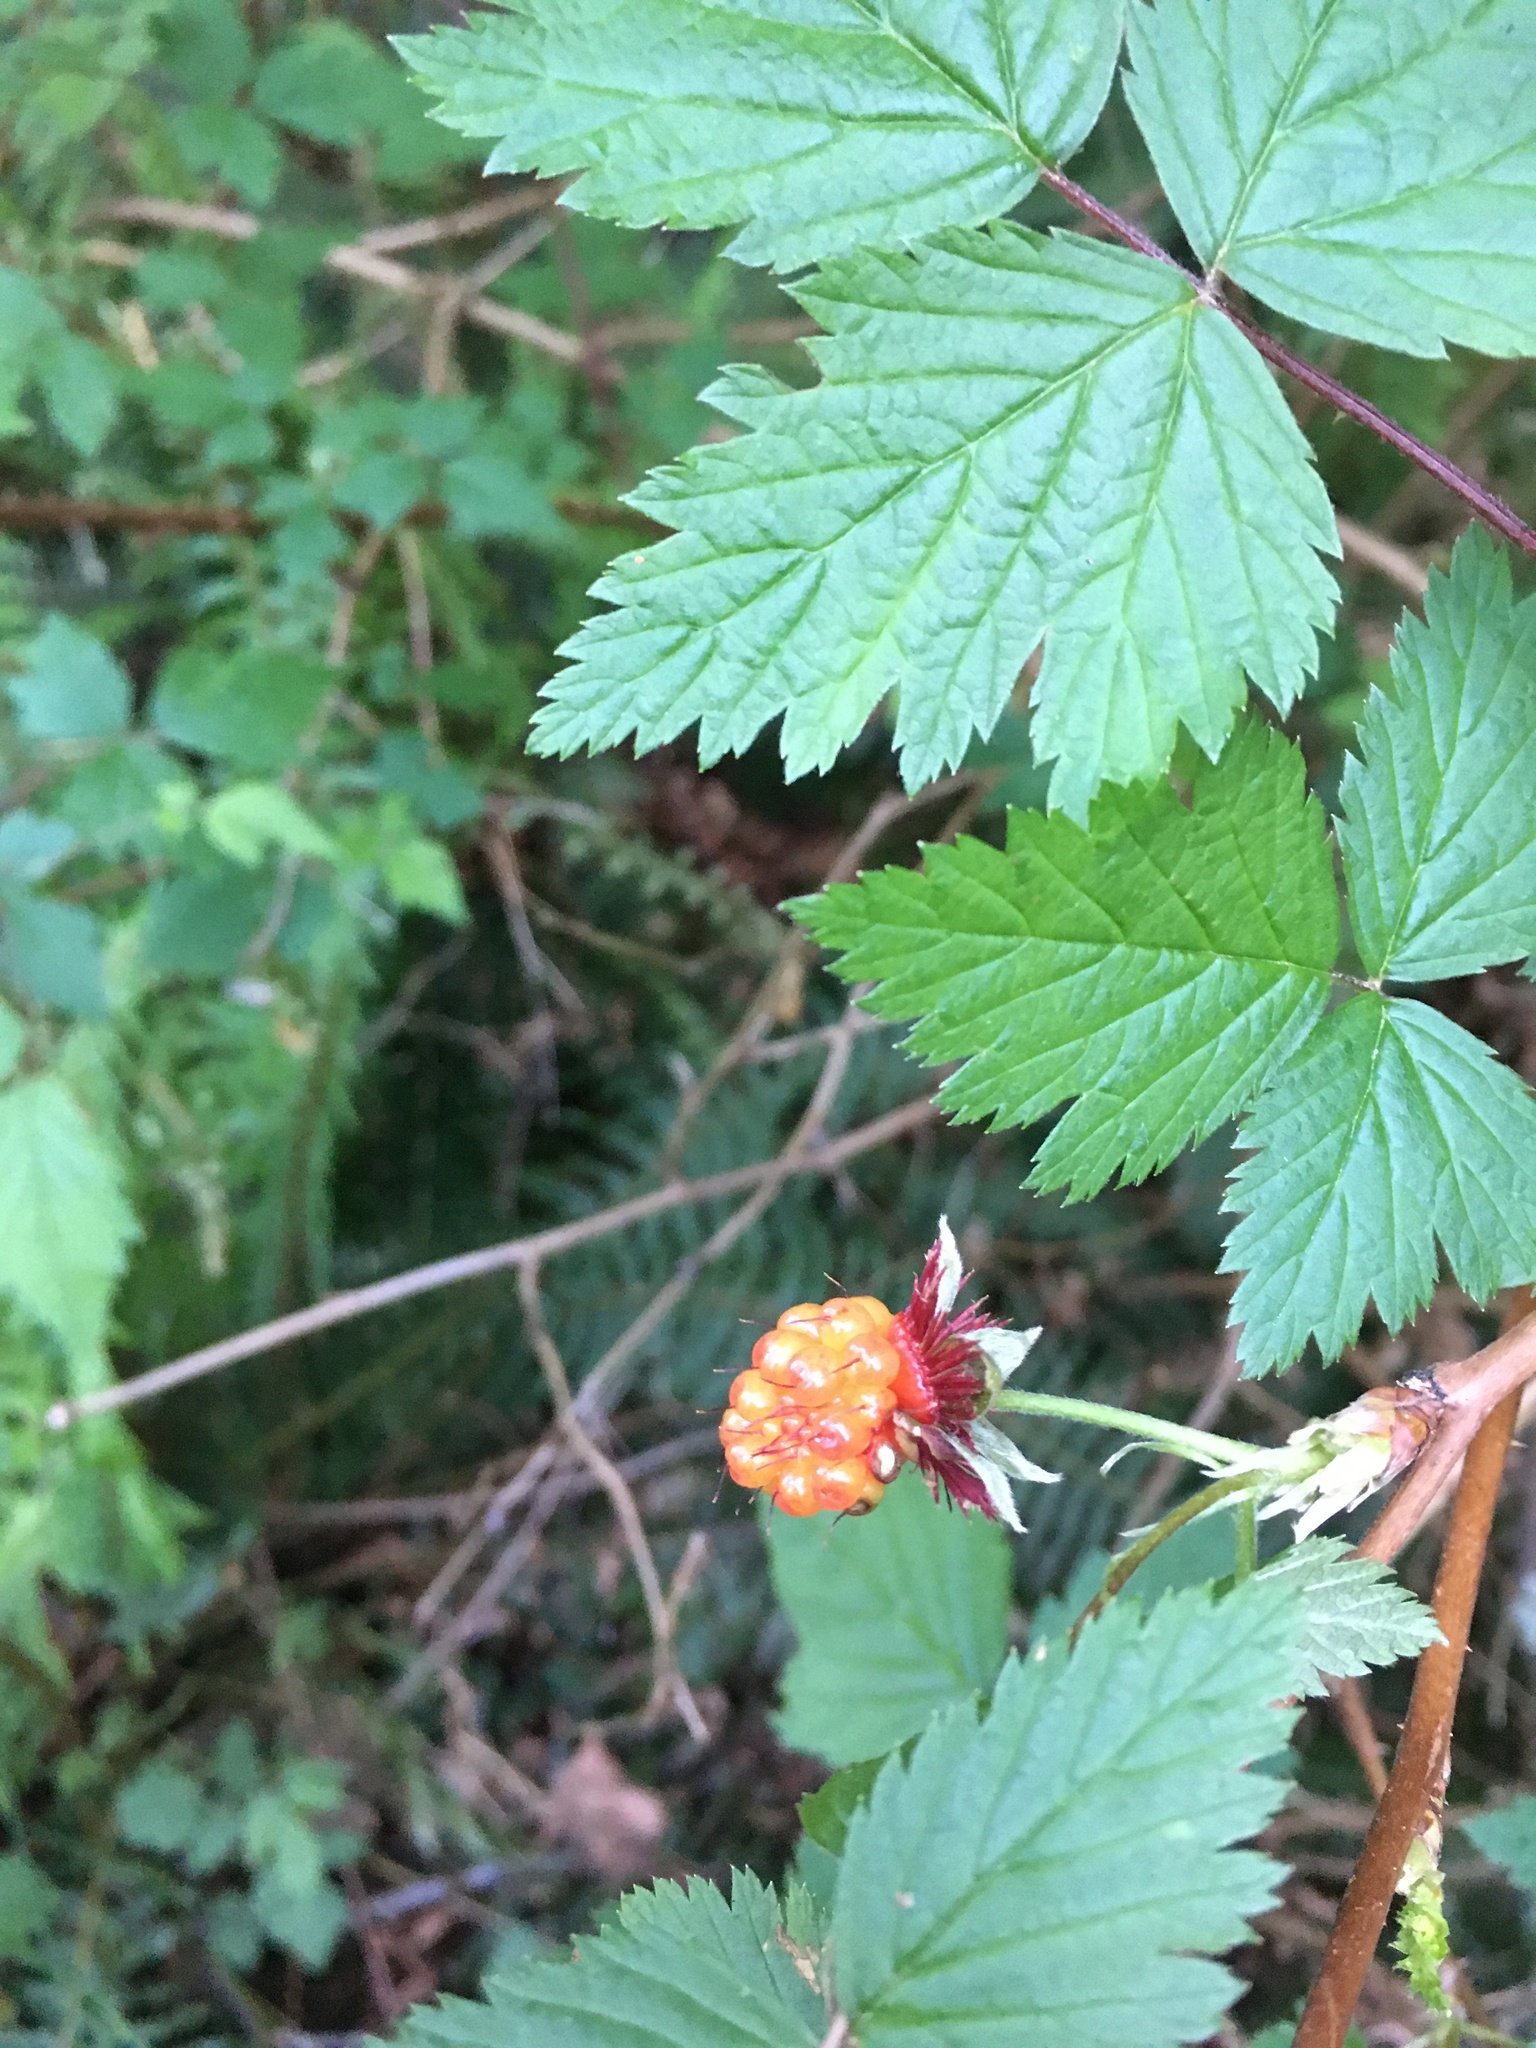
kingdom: Plantae
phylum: Tracheophyta
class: Magnoliopsida
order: Rosales
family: Rosaceae
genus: Rubus
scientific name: Rubus spectabilis
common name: Salmonberry
